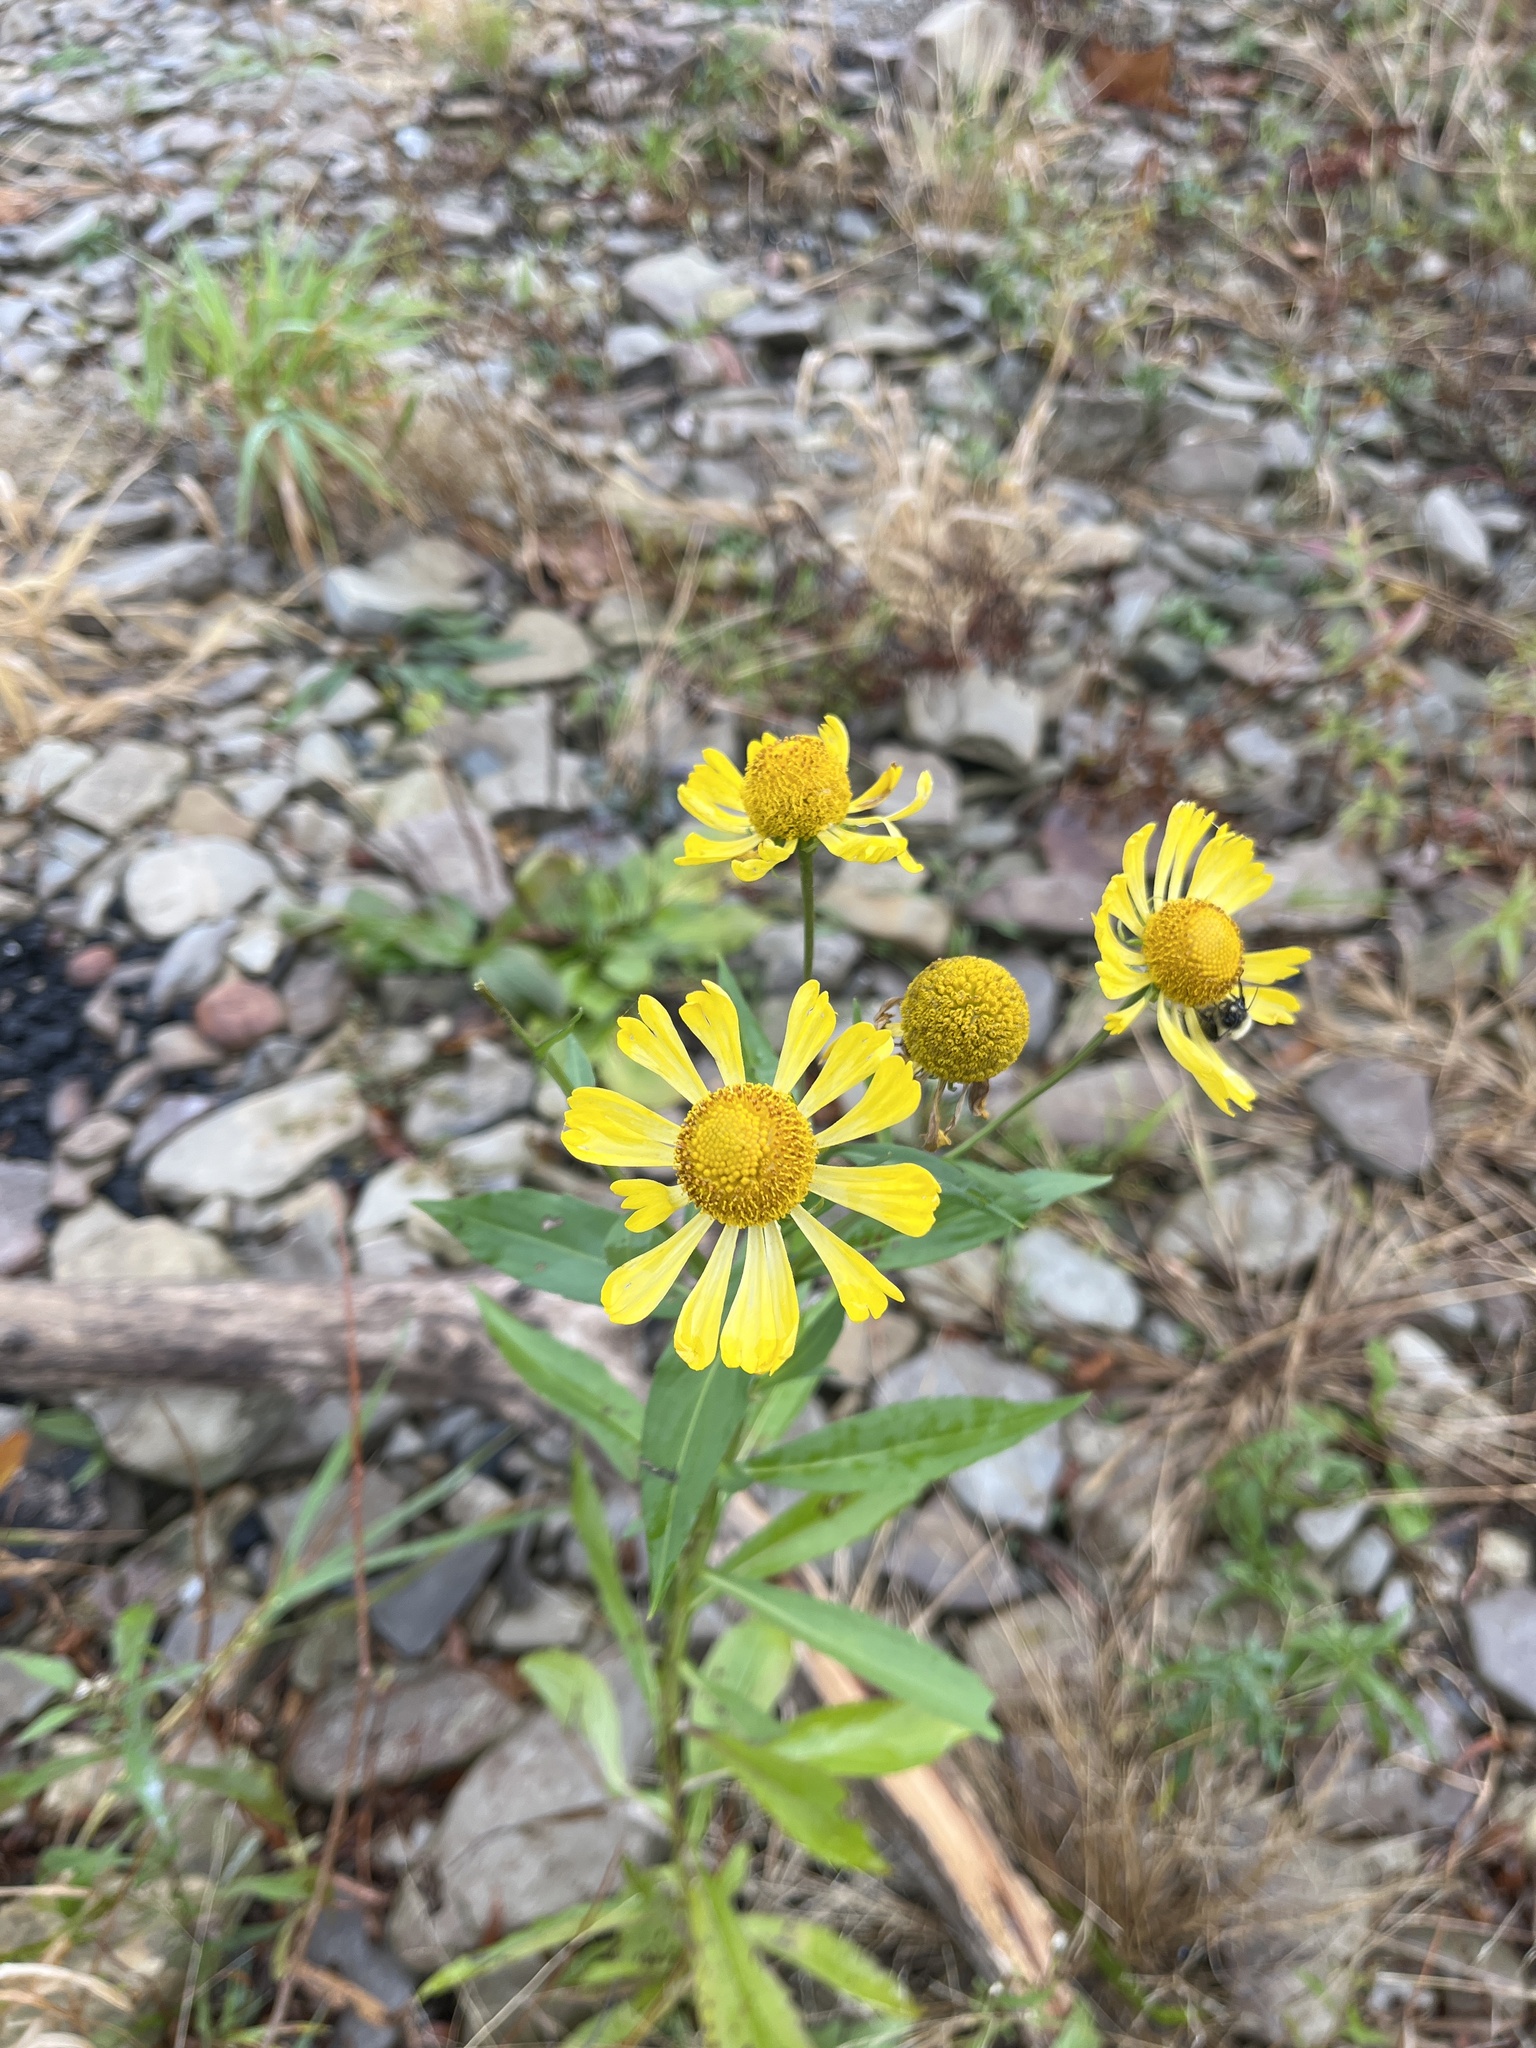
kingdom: Plantae
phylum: Tracheophyta
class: Magnoliopsida
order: Asterales
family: Asteraceae
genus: Helenium
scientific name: Helenium autumnale
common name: Sneezeweed
